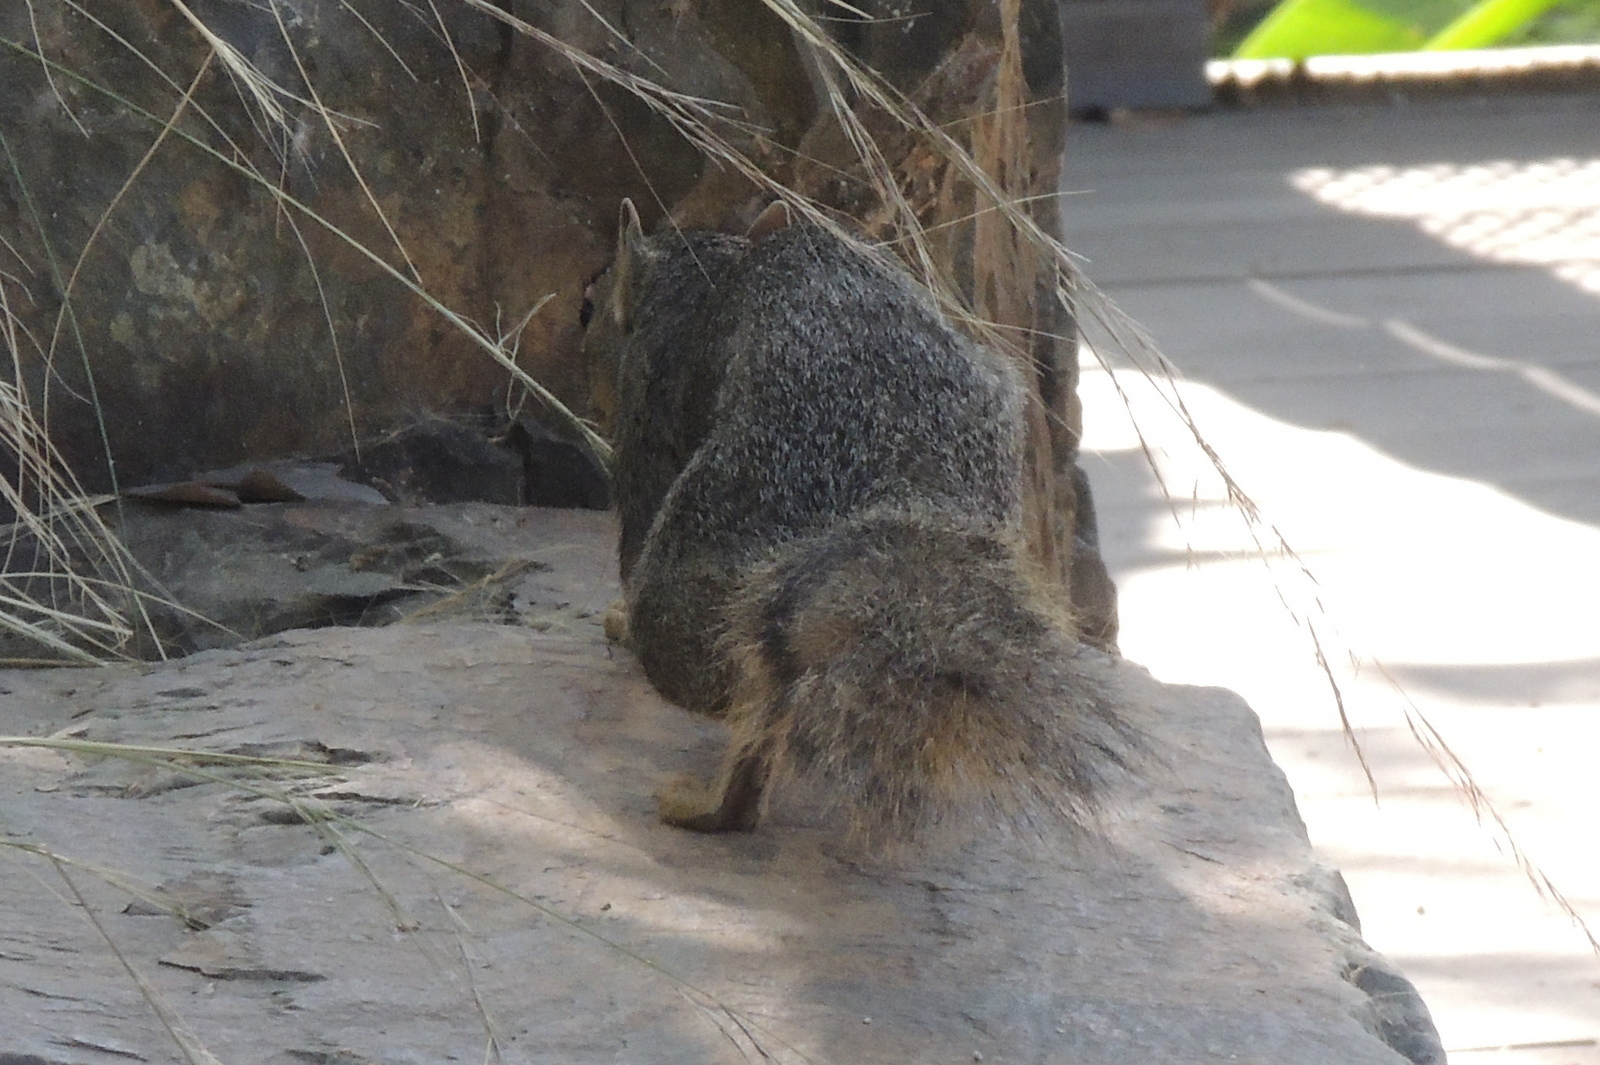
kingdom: Animalia
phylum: Chordata
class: Mammalia
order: Rodentia
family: Sciuridae
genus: Sciurus
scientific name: Sciurus niger
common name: Fox squirrel
